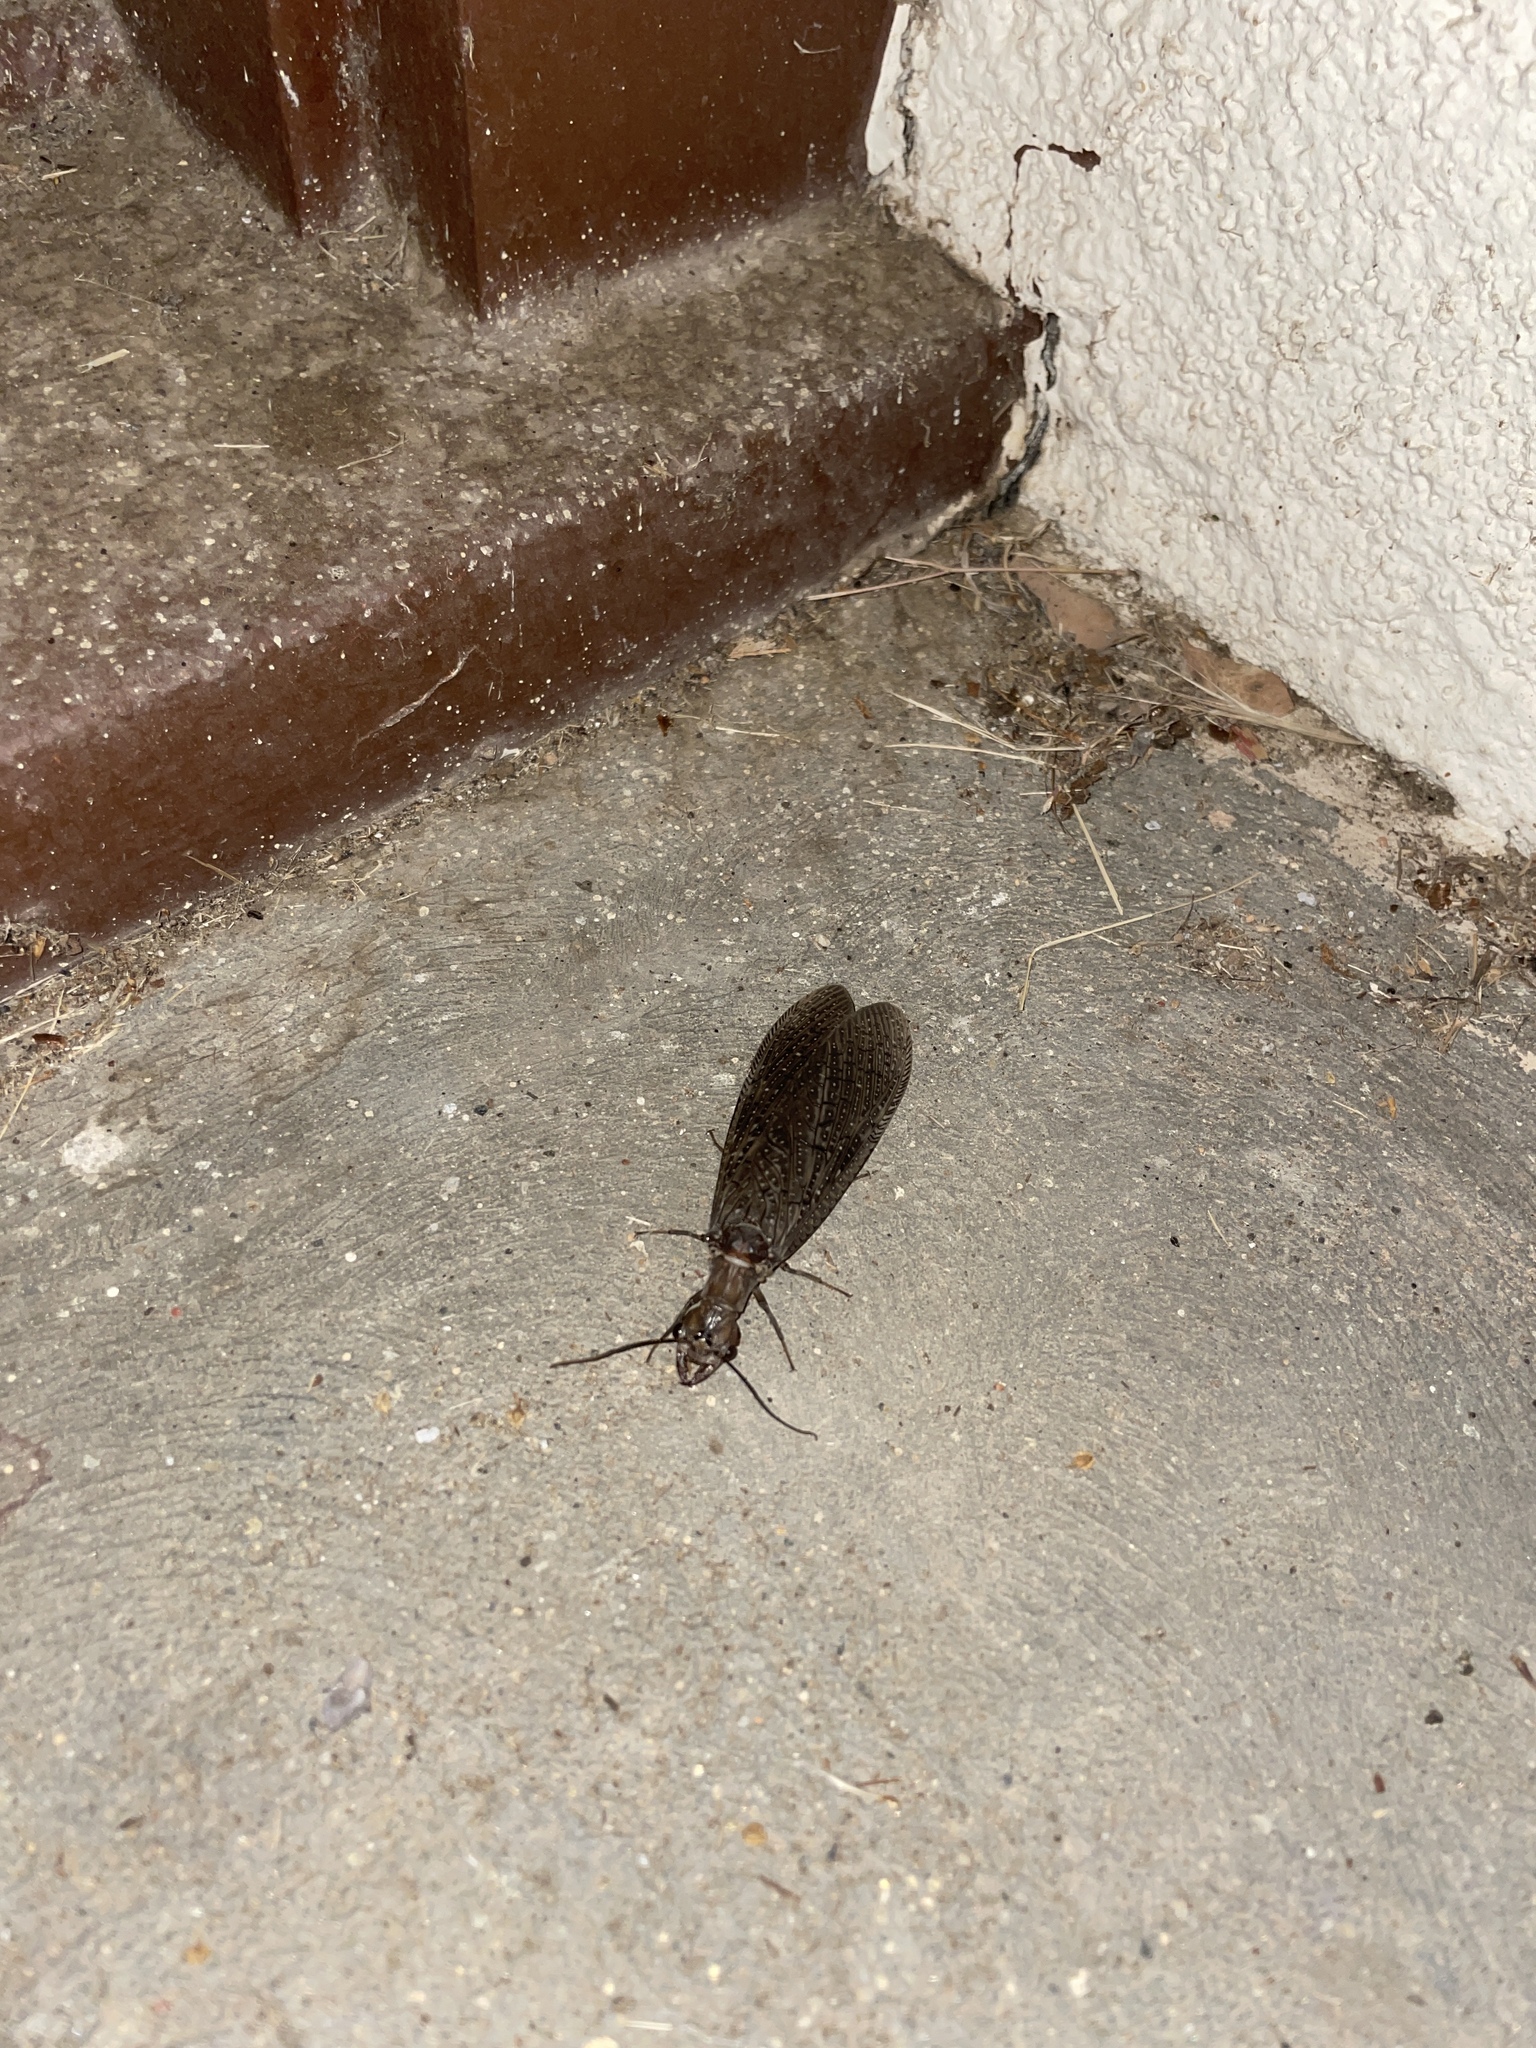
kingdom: Animalia
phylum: Arthropoda
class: Insecta
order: Megaloptera
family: Corydalidae
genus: Corydalus
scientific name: Corydalus texanus
